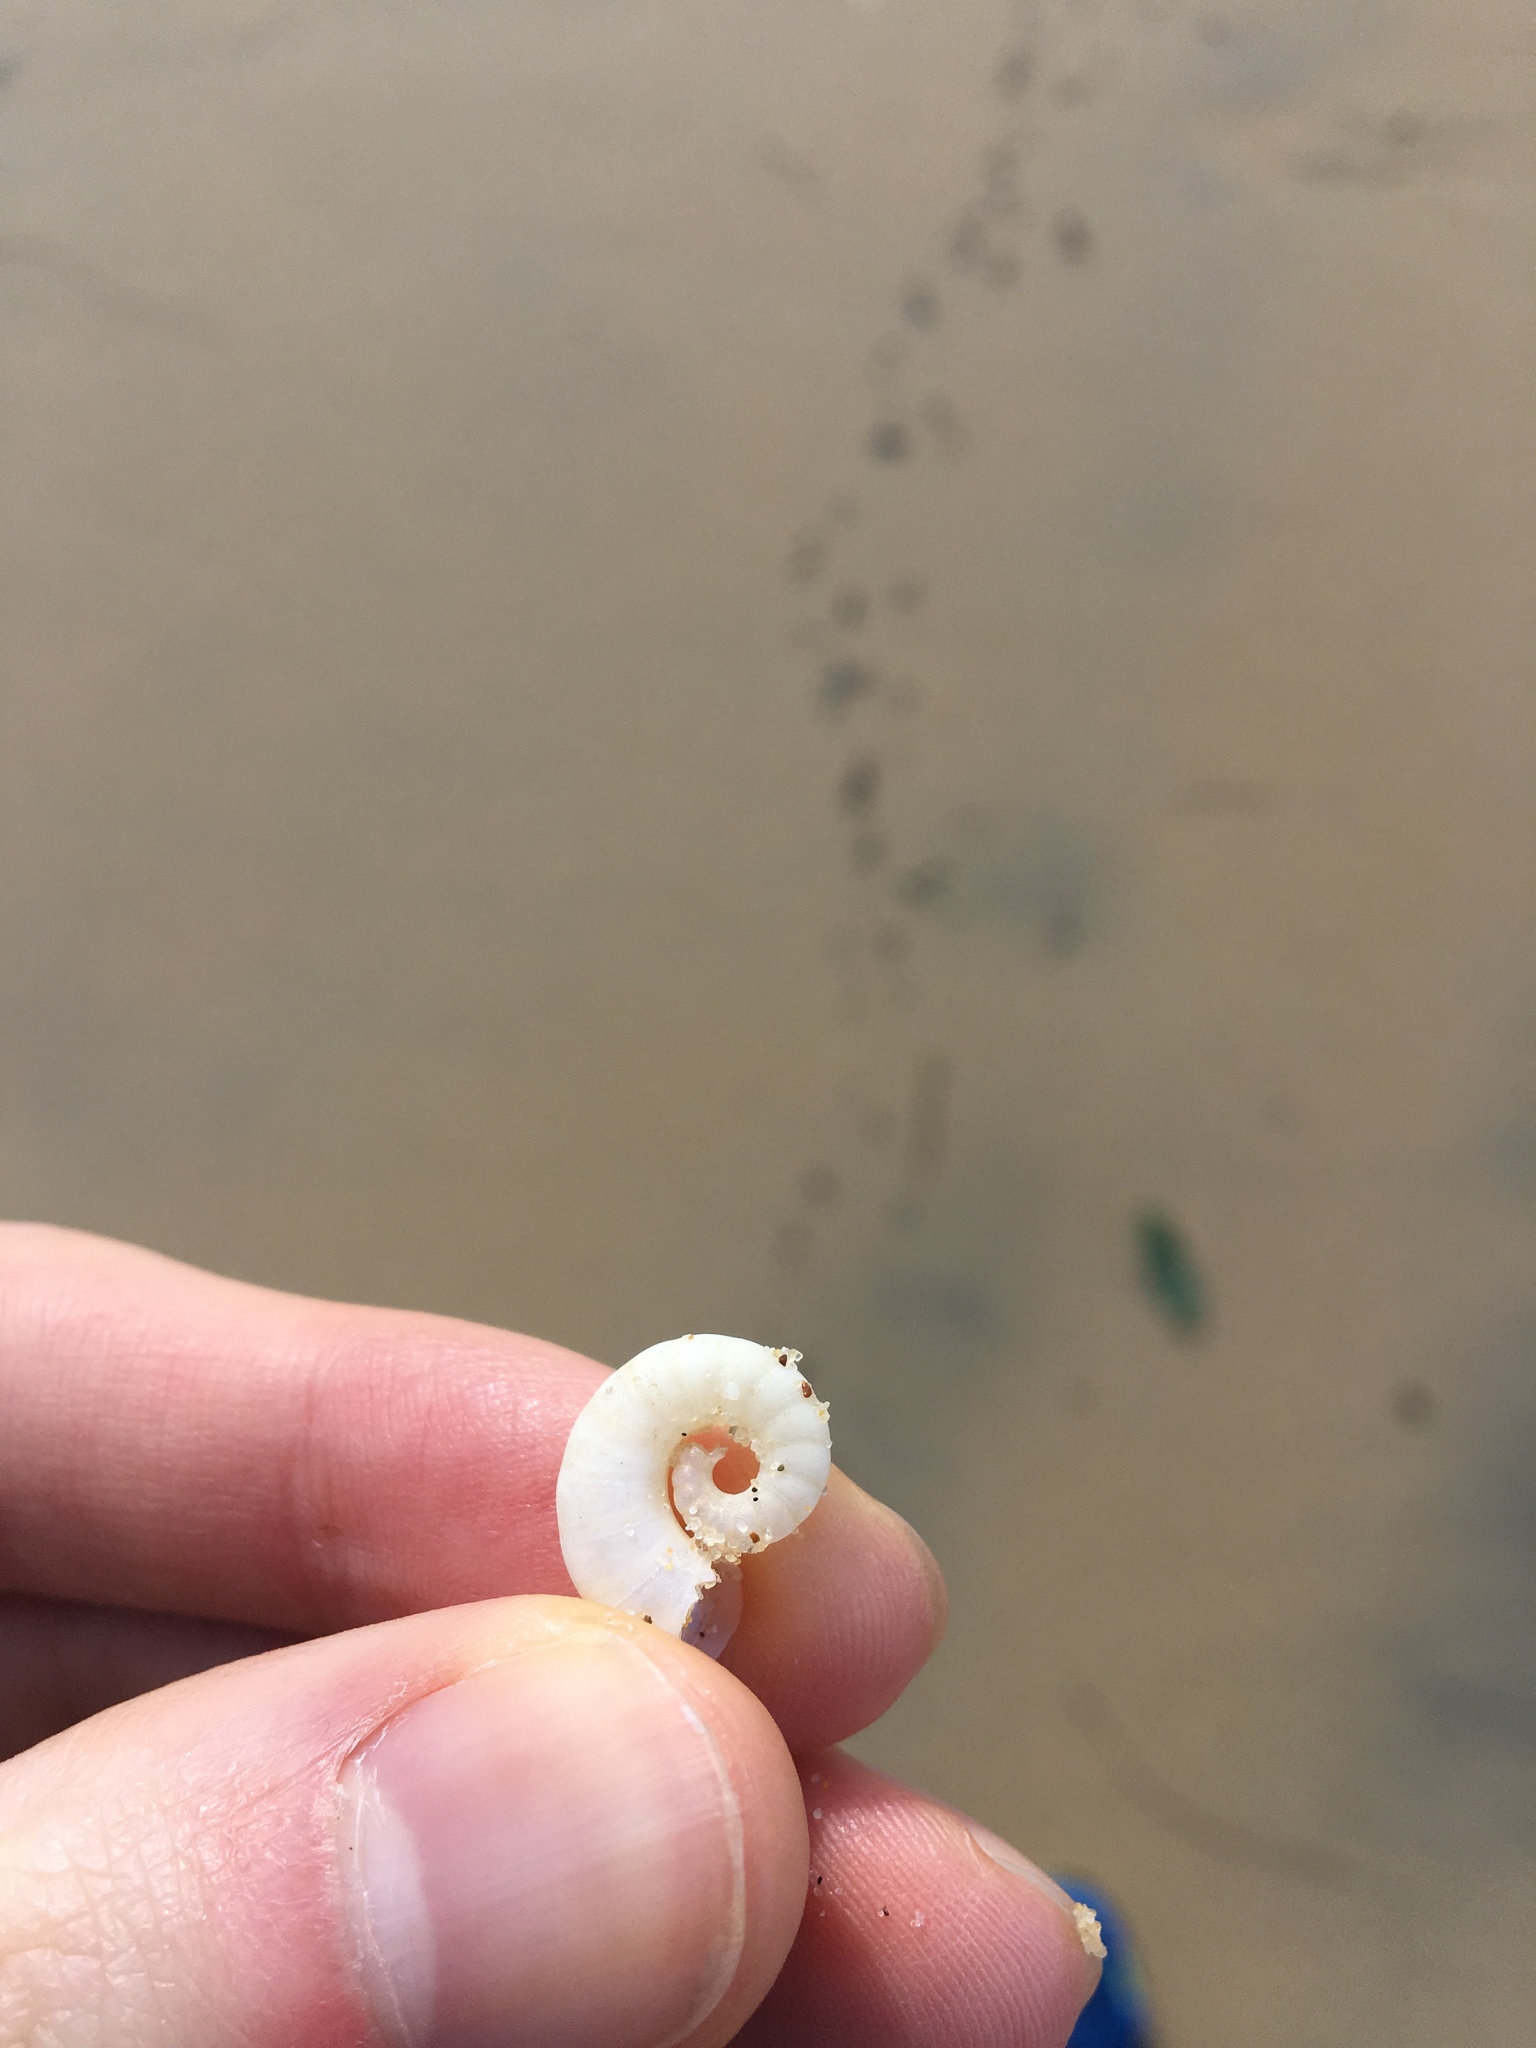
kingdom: Animalia
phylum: Mollusca
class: Cephalopoda
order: Spirulida
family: Spirulidae
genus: Spirula
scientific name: Spirula spirula
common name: Ram's horn squid
